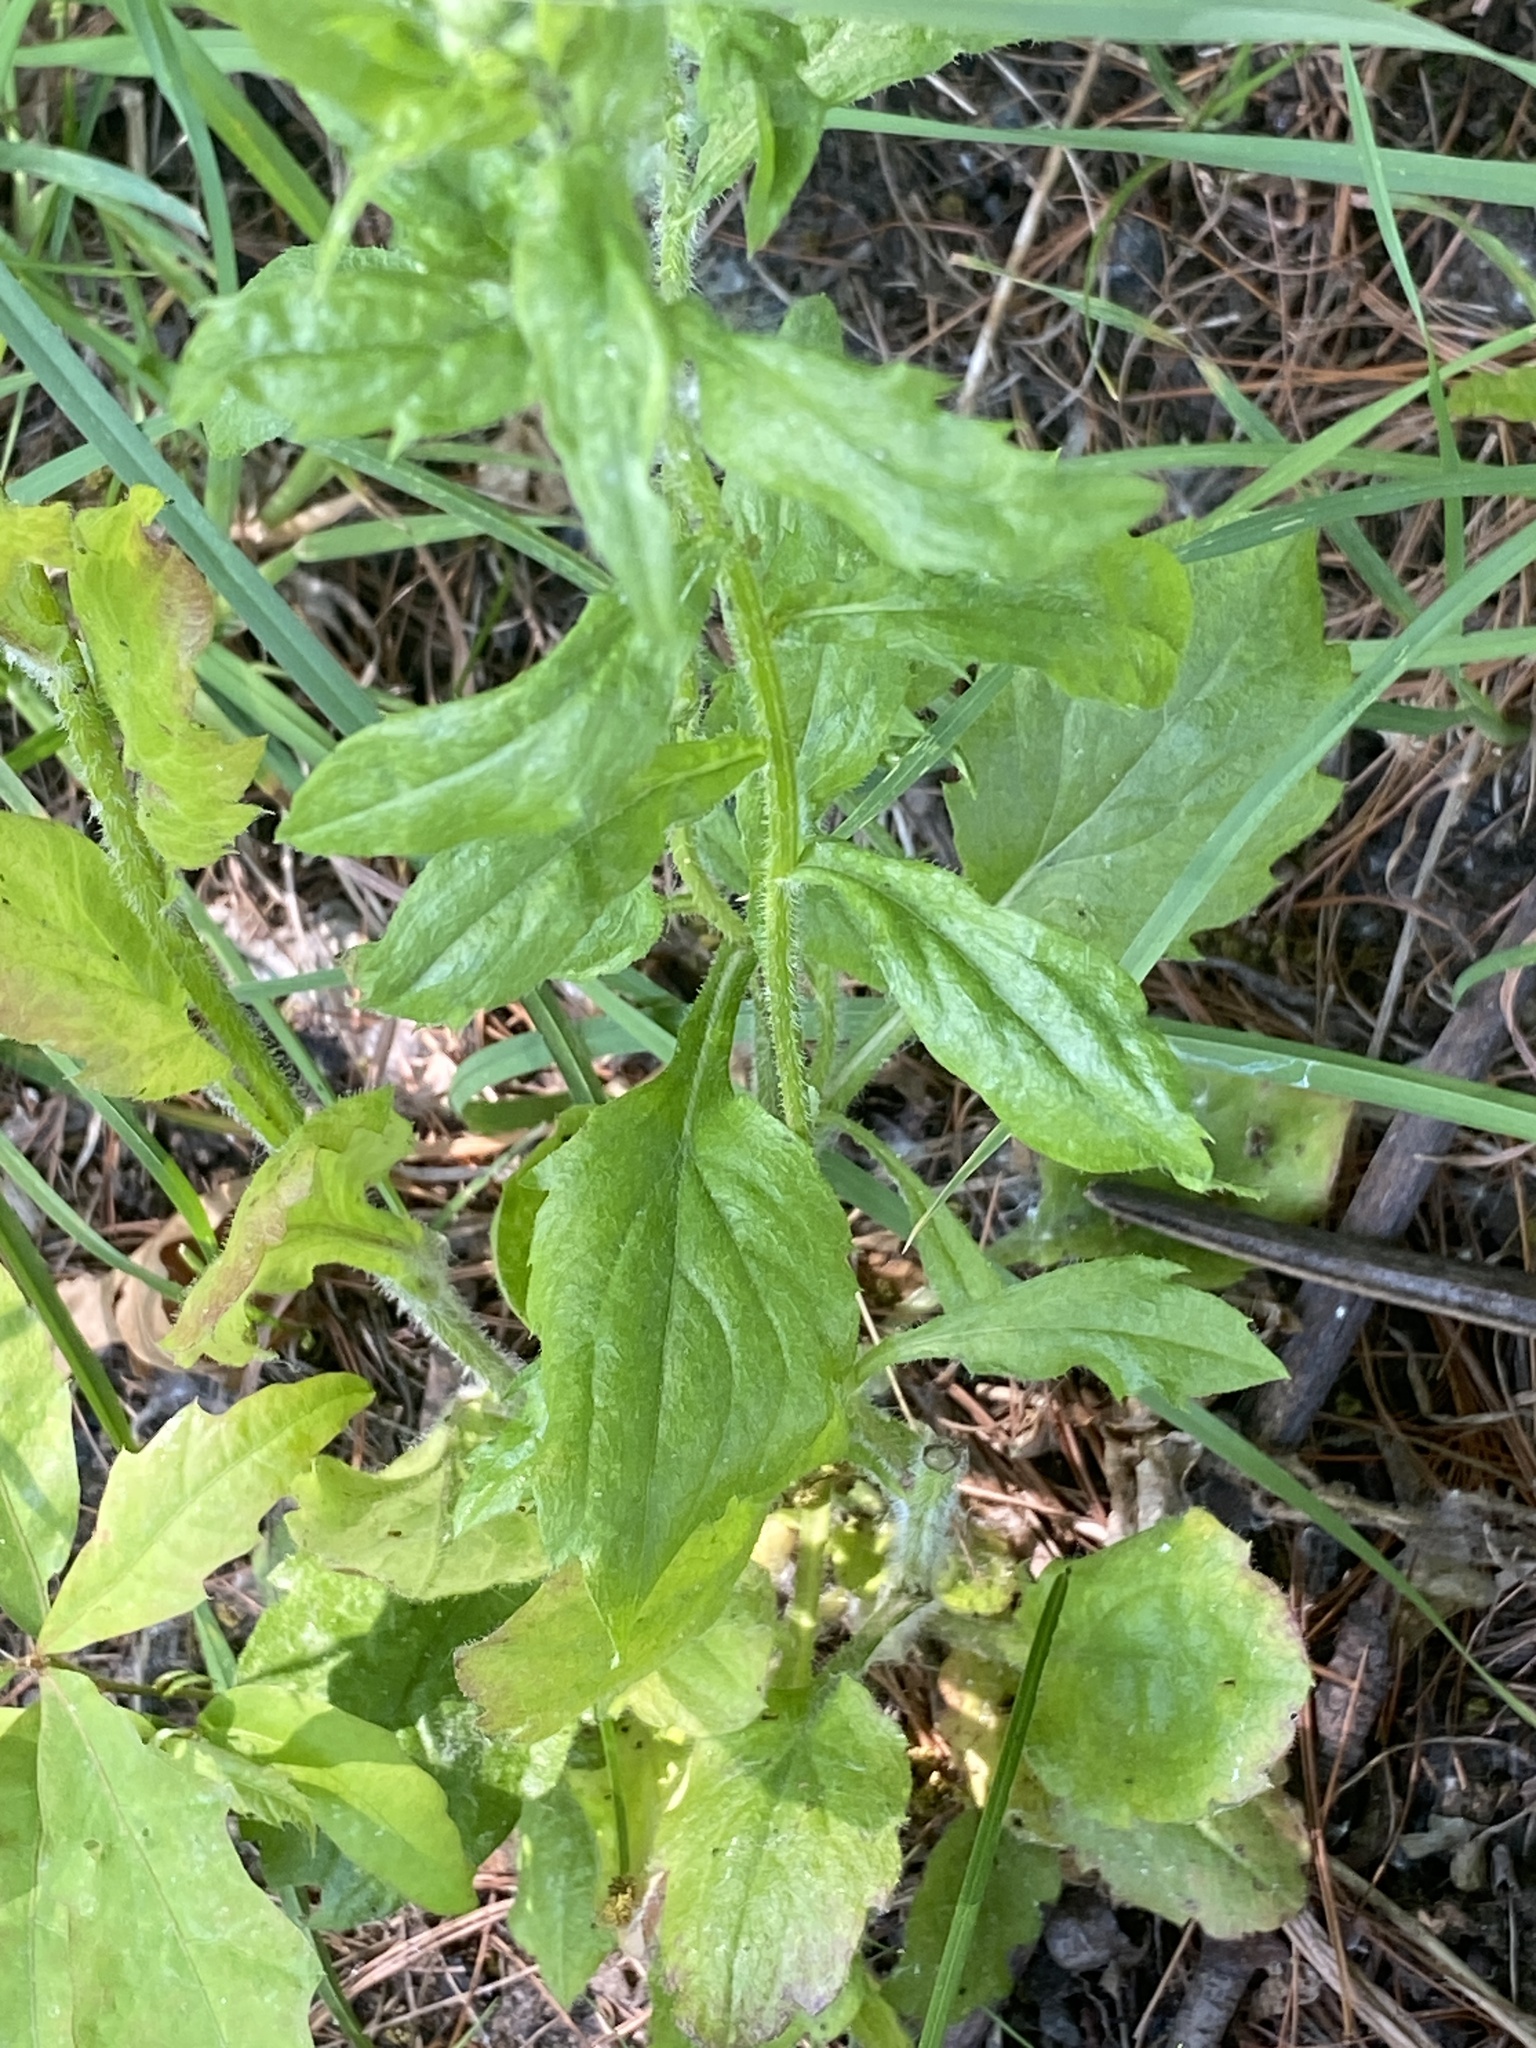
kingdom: Plantae
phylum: Tracheophyta
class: Magnoliopsida
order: Asterales
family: Asteraceae
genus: Erigeron
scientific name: Erigeron annuus
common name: Tall fleabane
